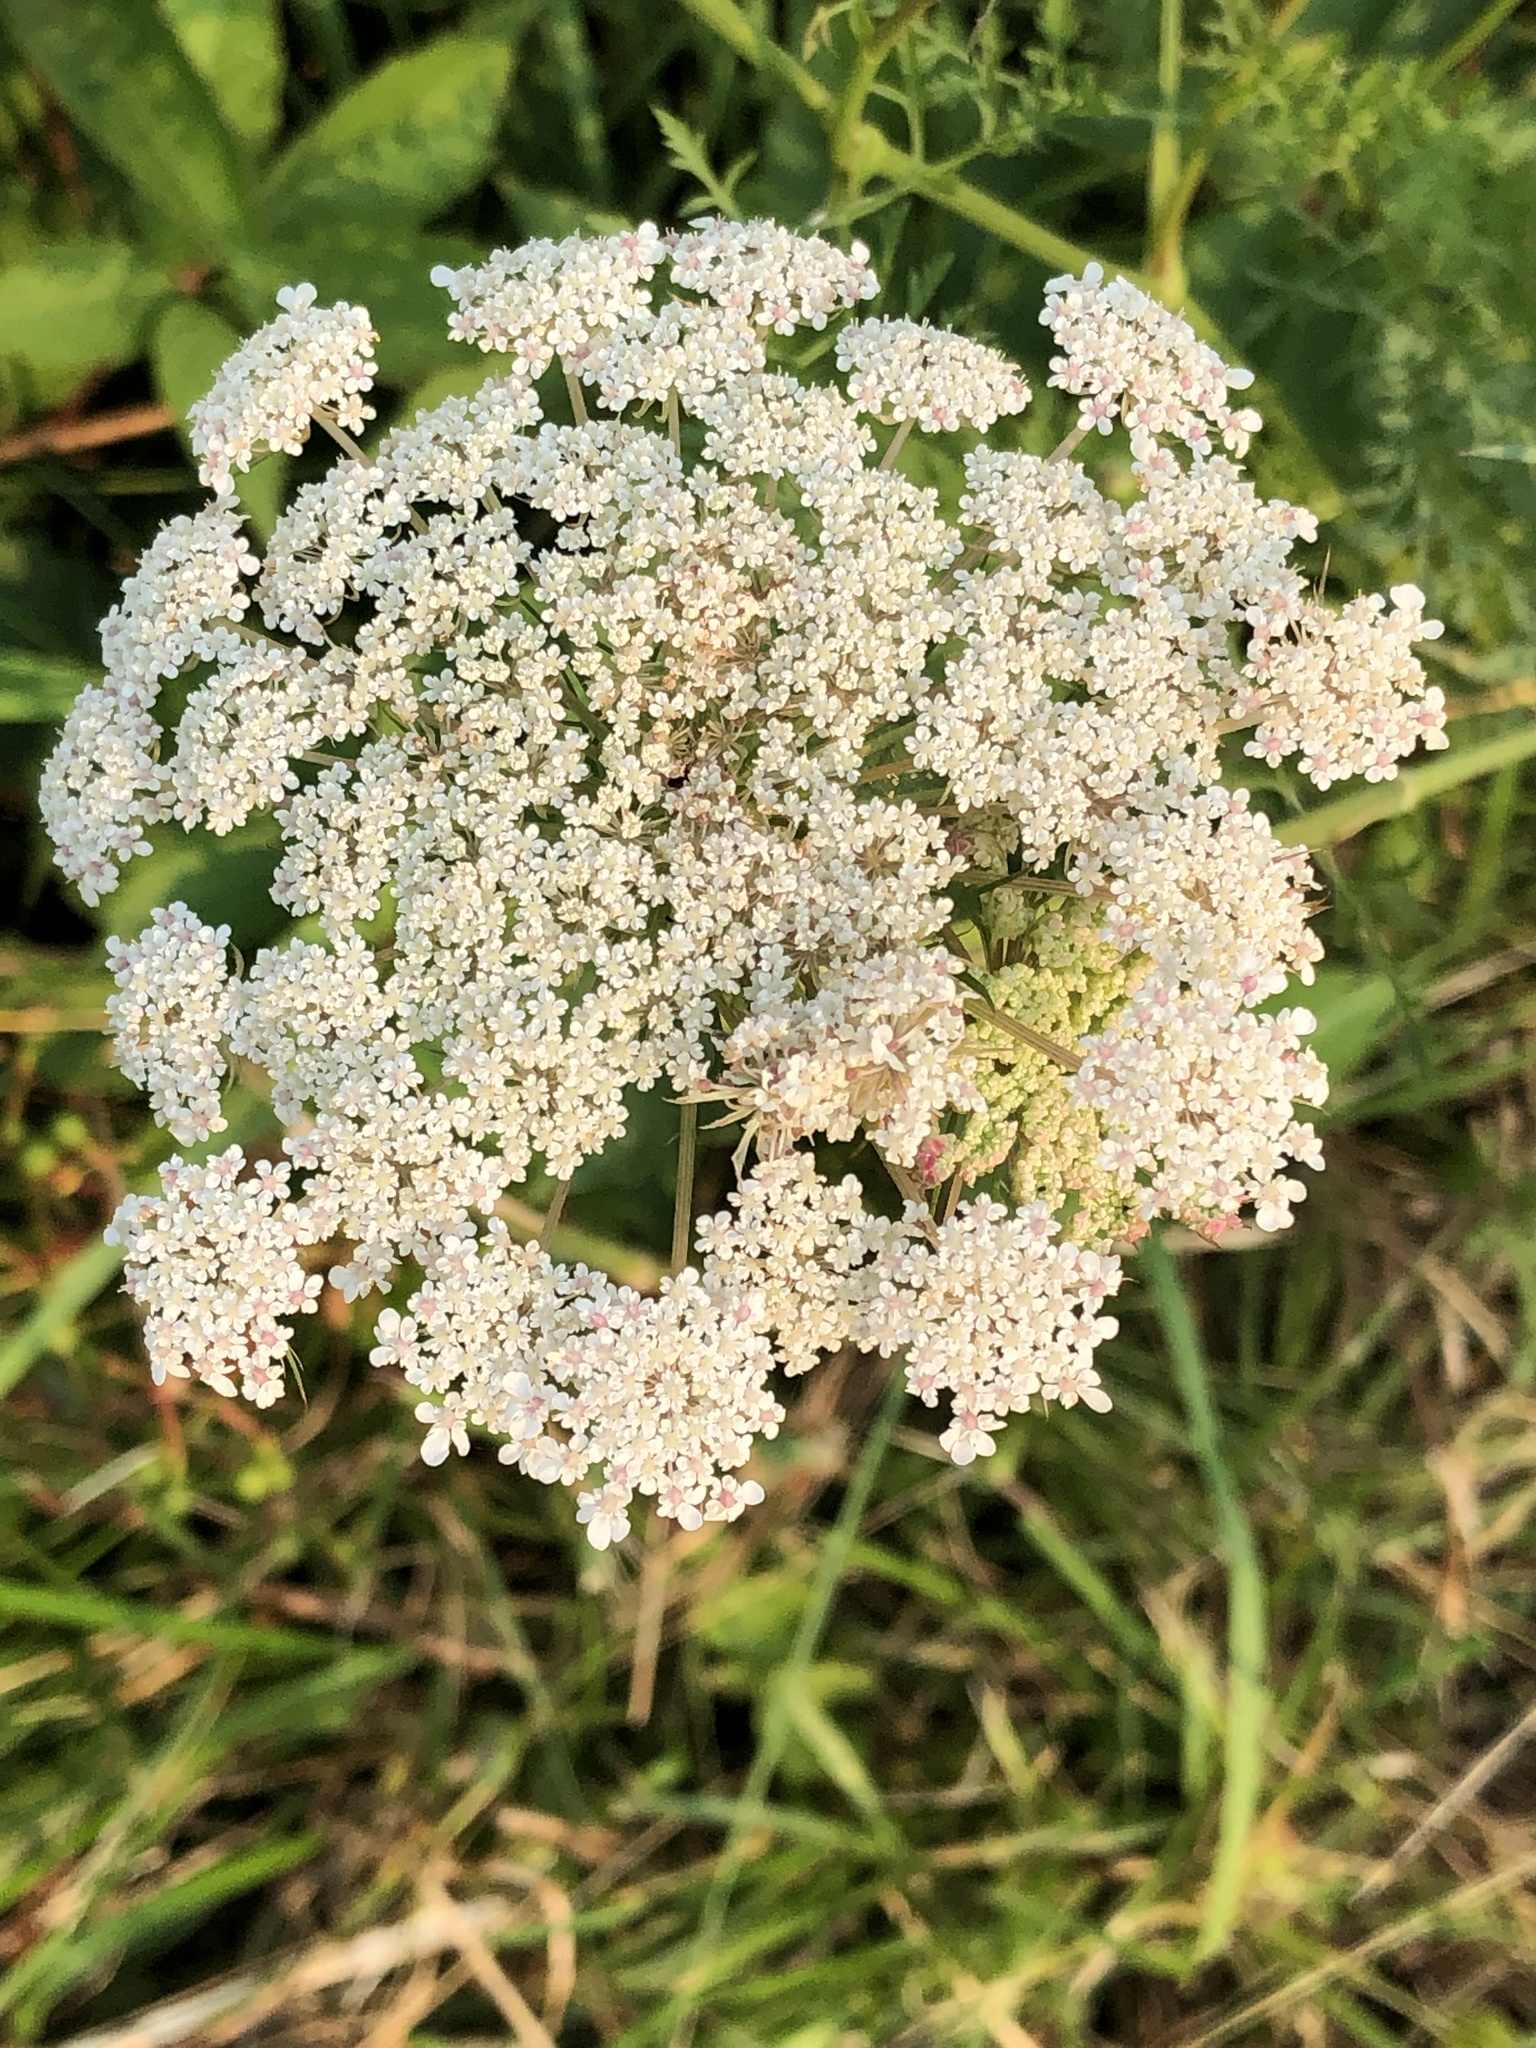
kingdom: Plantae
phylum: Tracheophyta
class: Magnoliopsida
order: Apiales
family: Apiaceae
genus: Daucus
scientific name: Daucus carota
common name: Wild carrot
